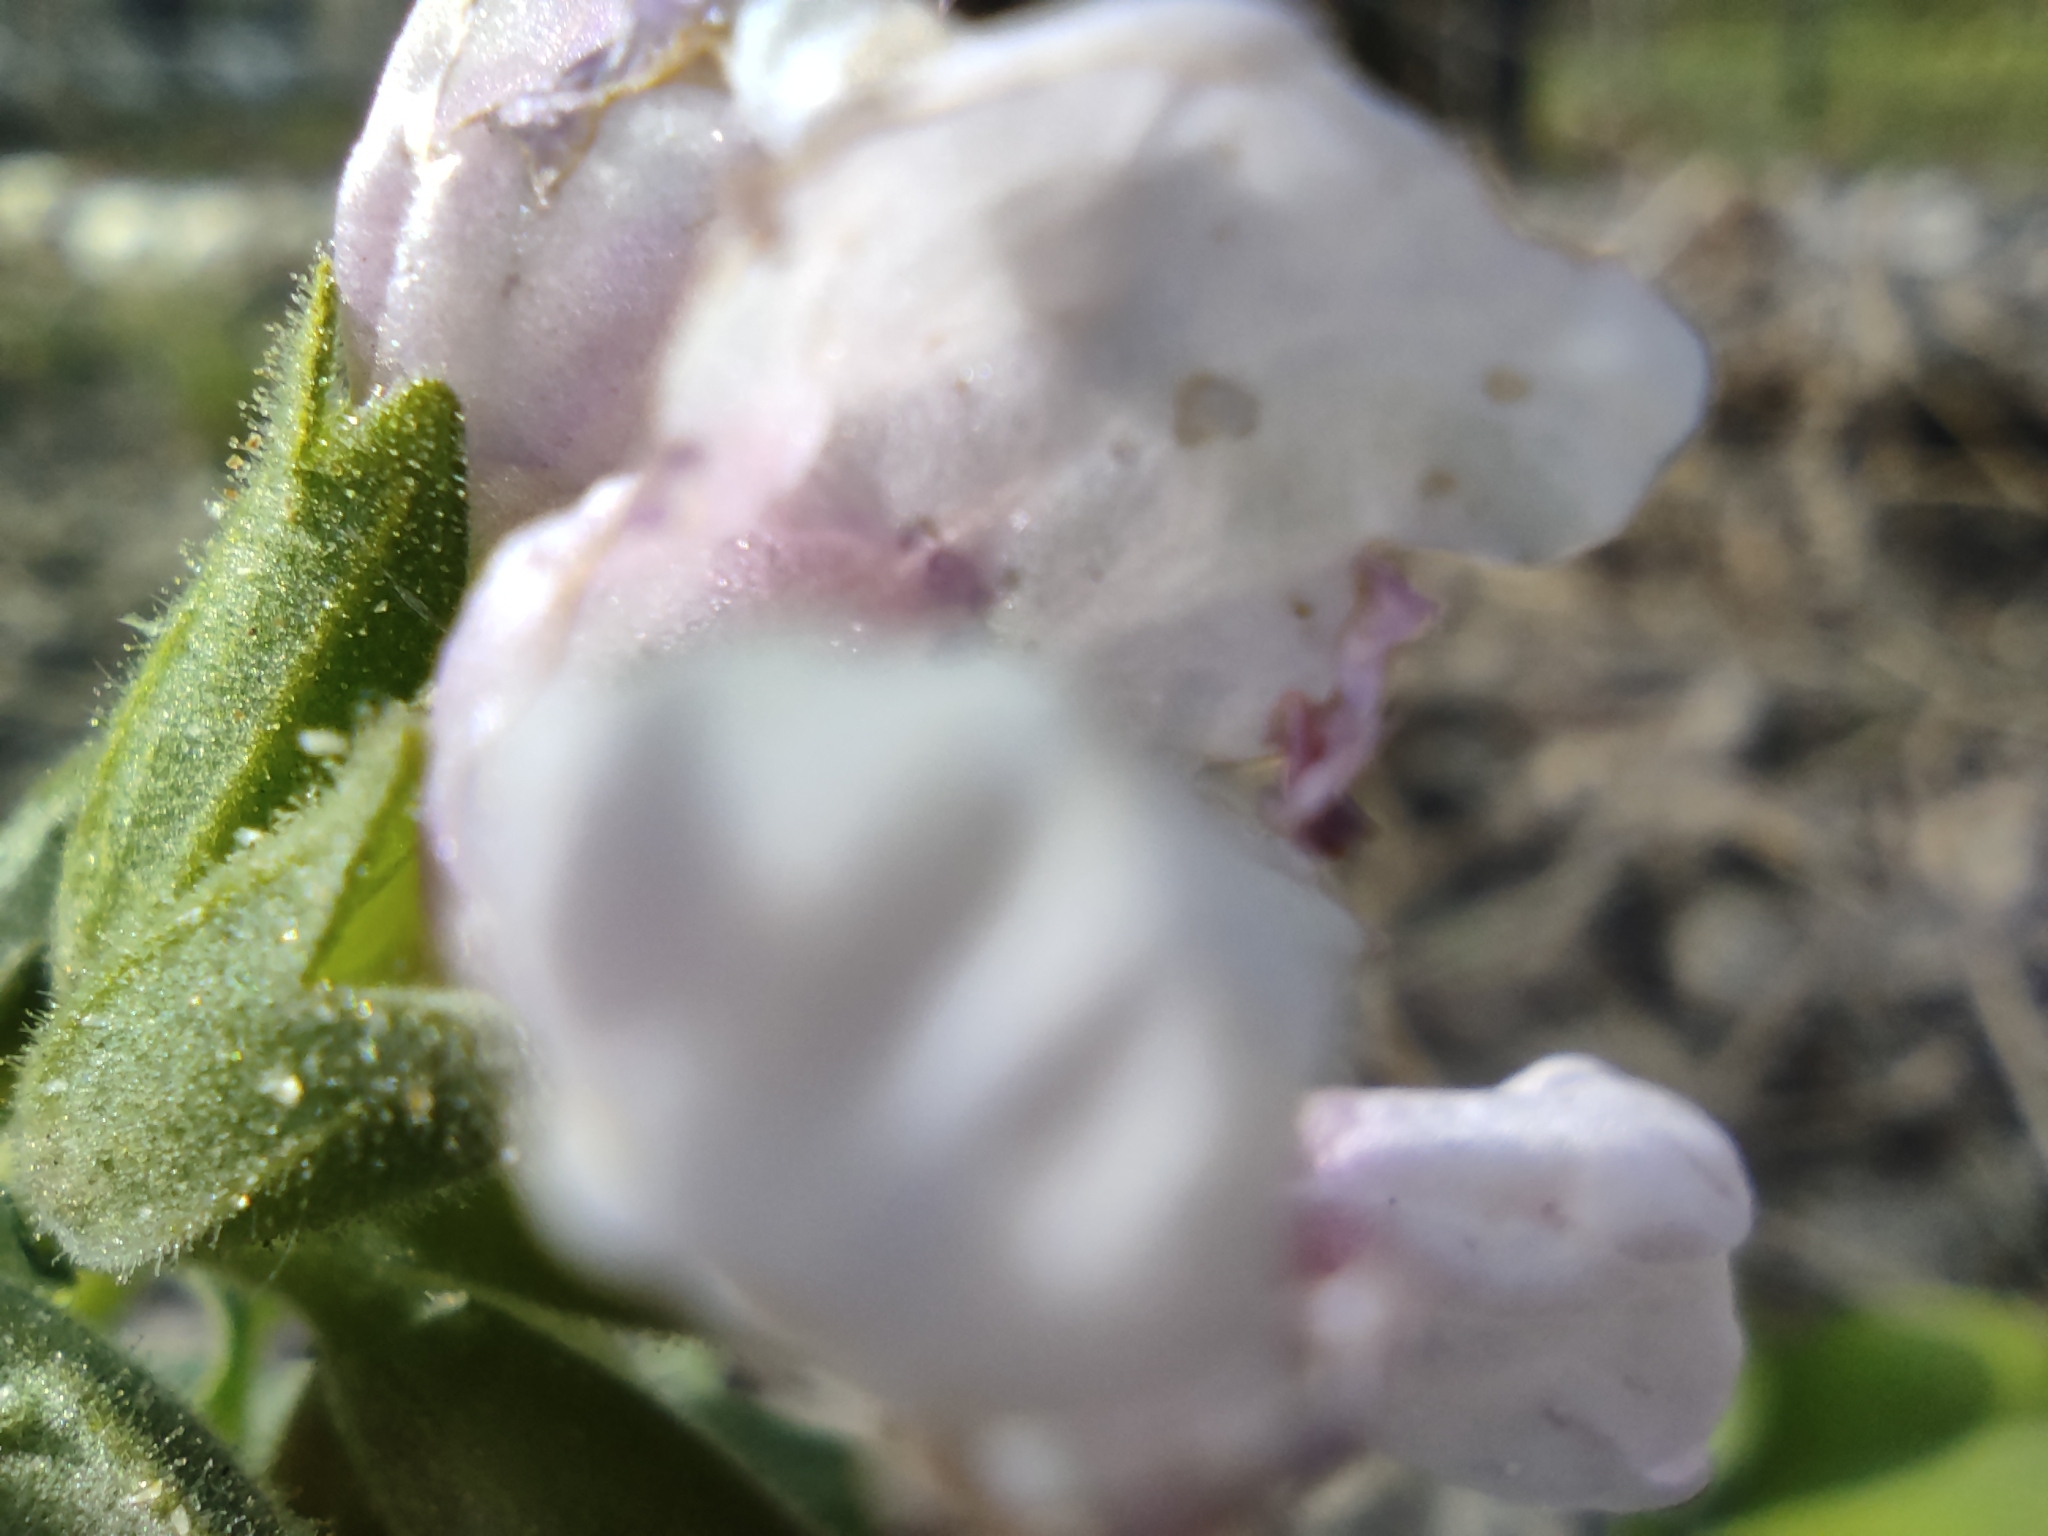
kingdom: Plantae
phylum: Tracheophyta
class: Magnoliopsida
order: Boraginales
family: Boraginaceae
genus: Pulmonaria
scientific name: Pulmonaria mollis
